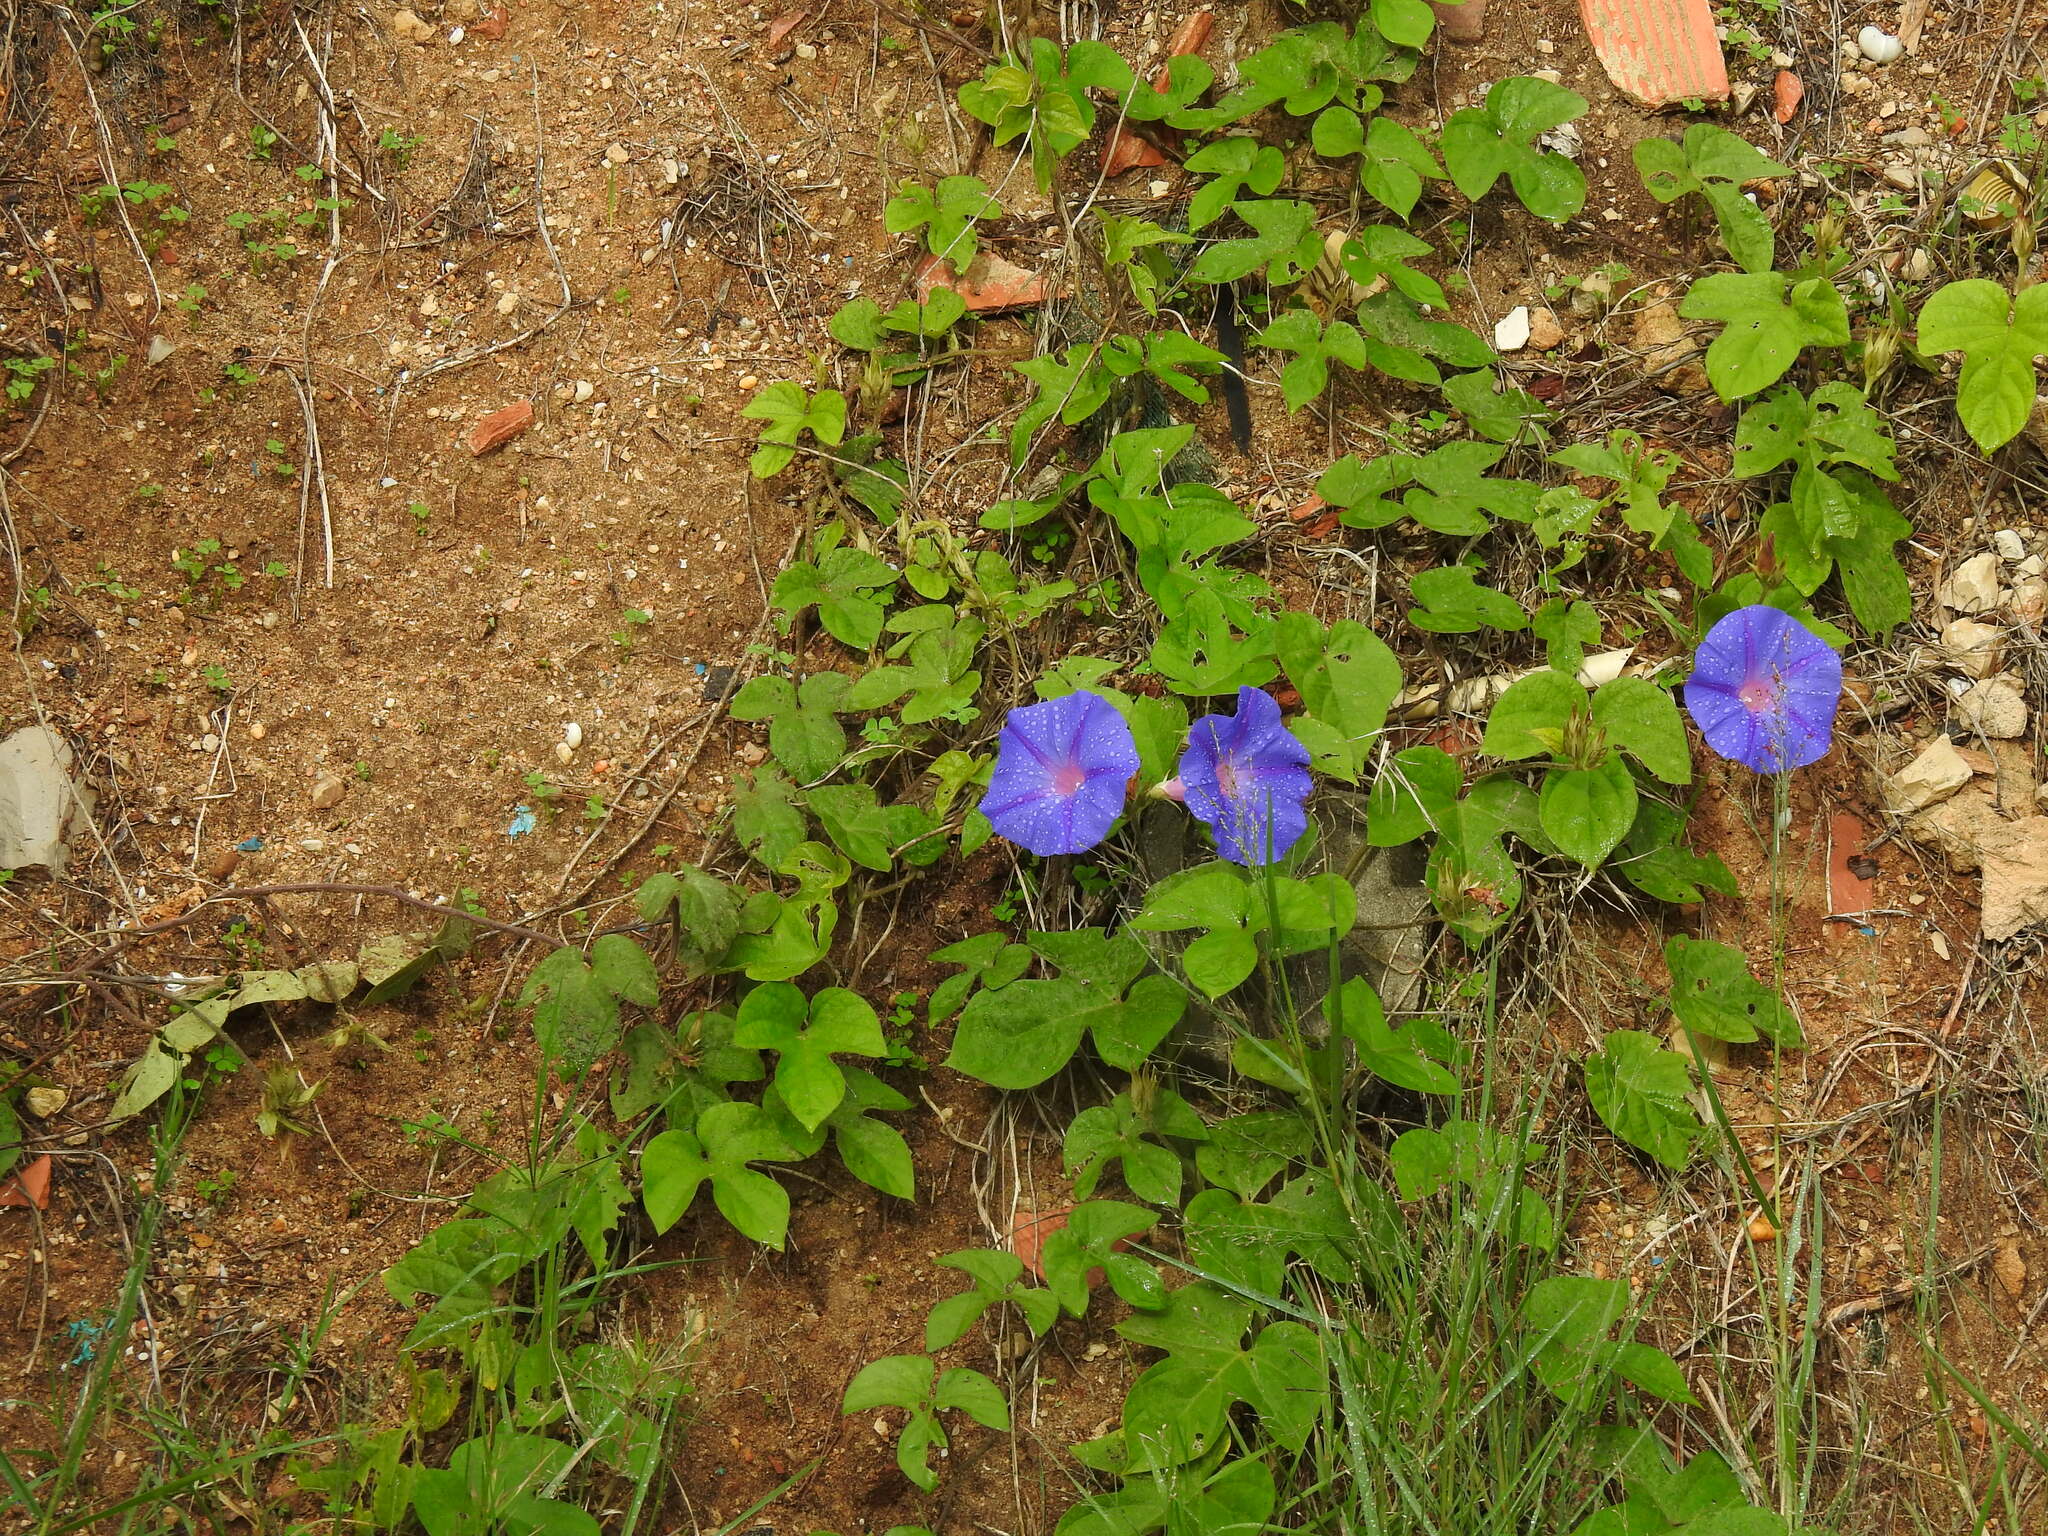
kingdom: Plantae
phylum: Tracheophyta
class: Magnoliopsida
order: Solanales
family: Convolvulaceae
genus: Ipomoea
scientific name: Ipomoea indica
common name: Blue dawnflower
